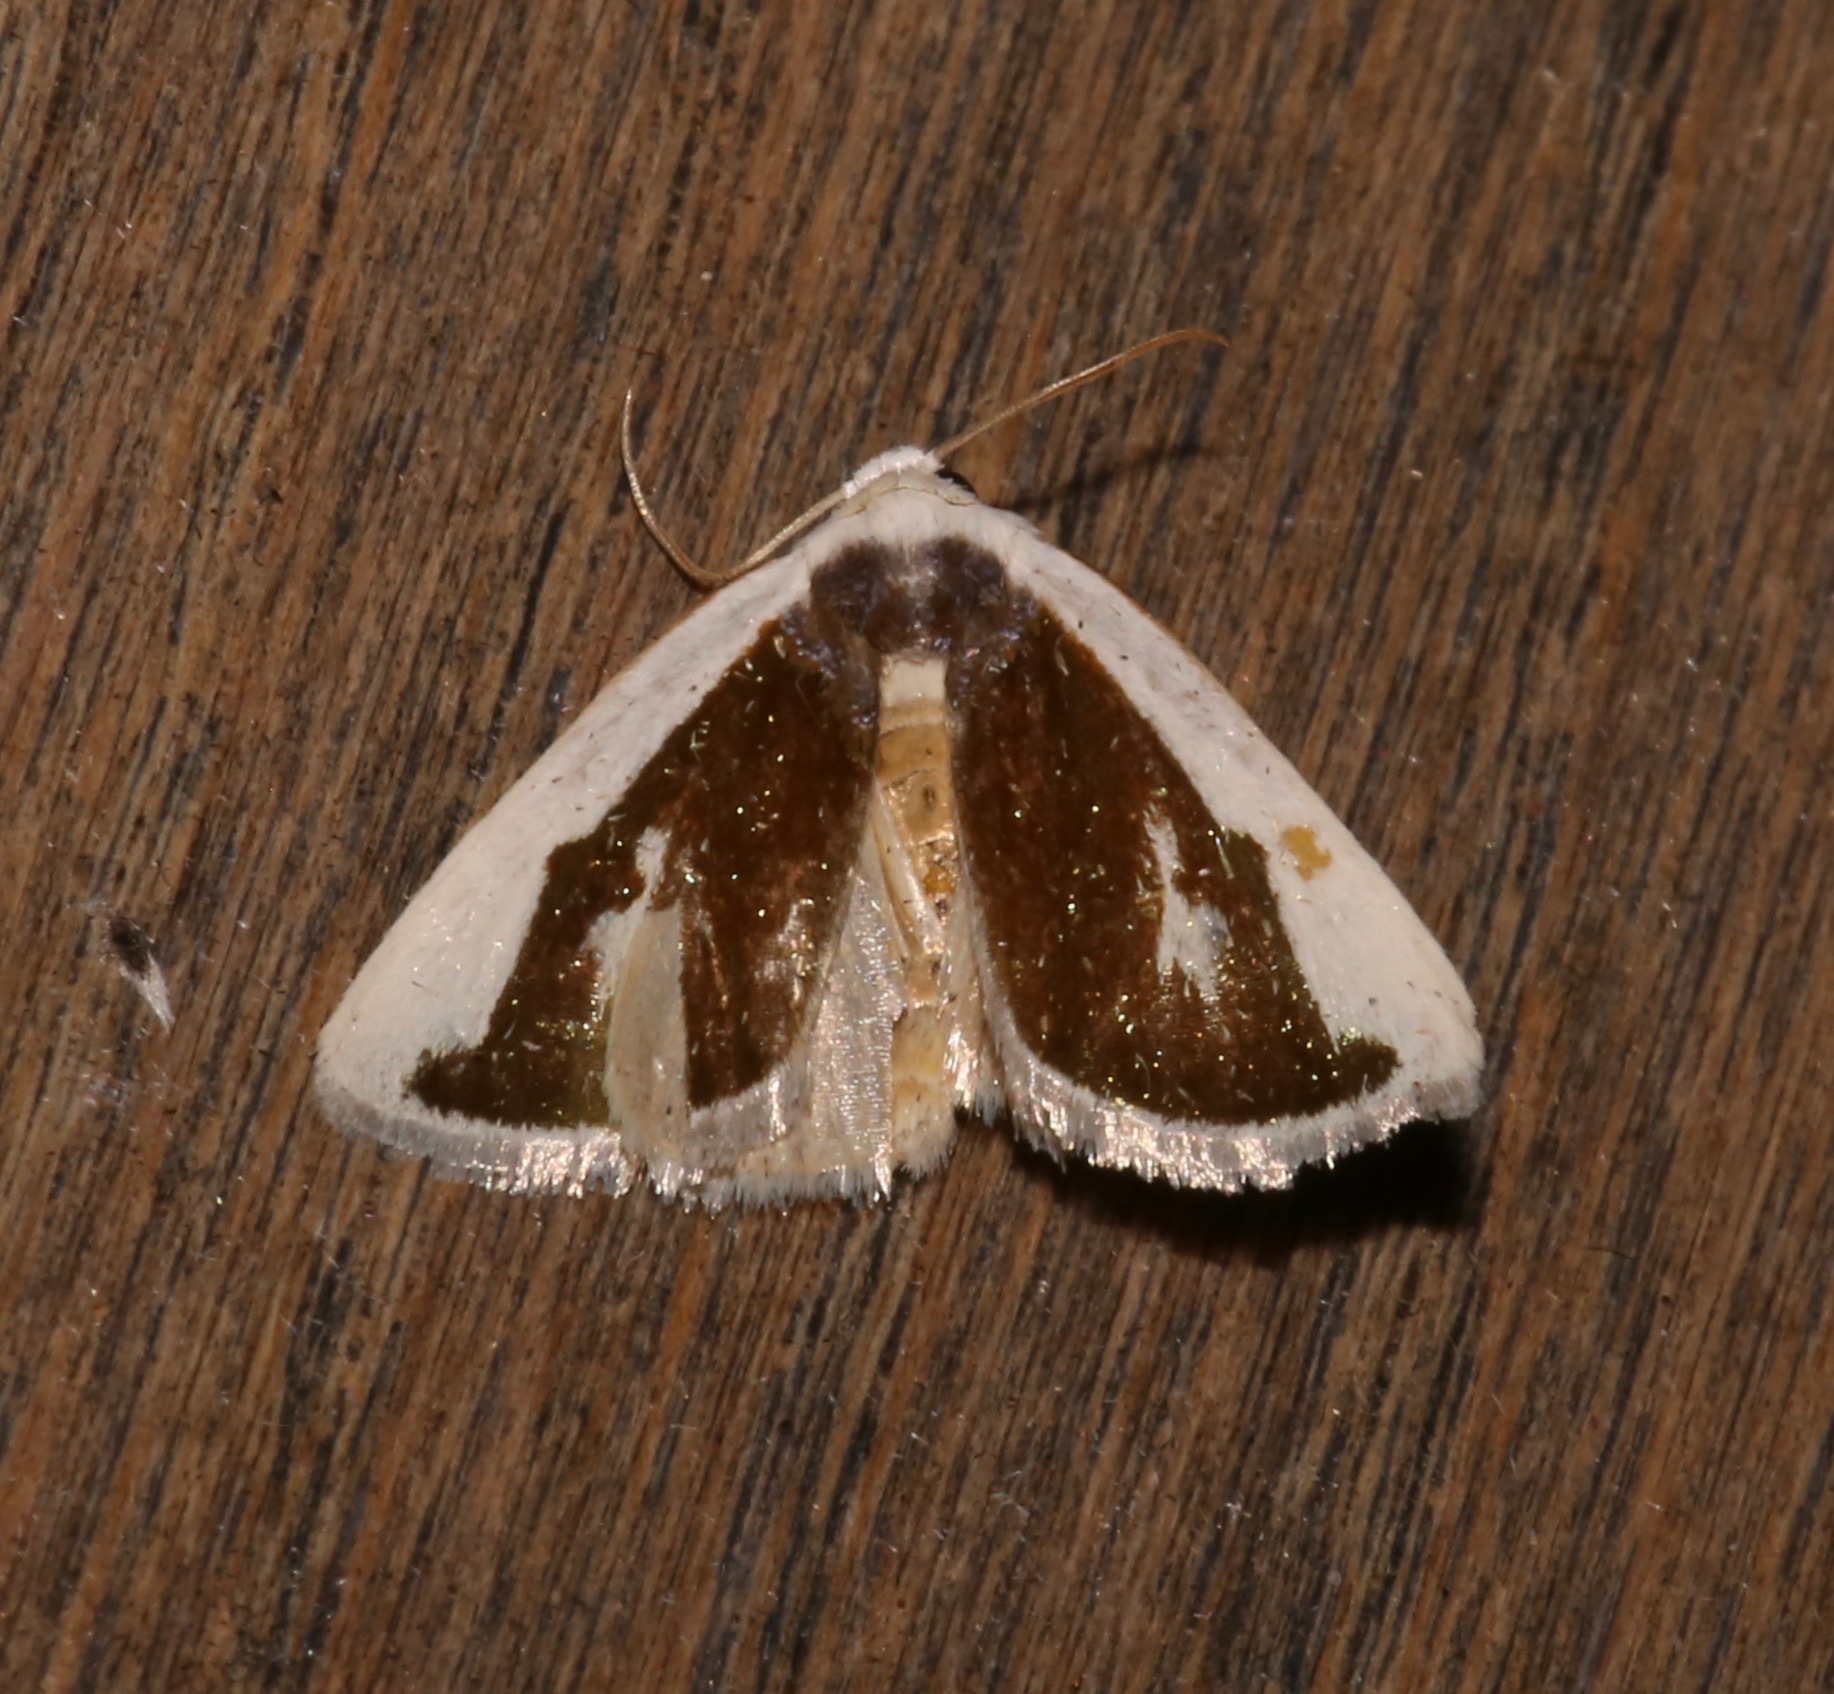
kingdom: Animalia
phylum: Arthropoda
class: Insecta
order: Lepidoptera
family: Noctuidae
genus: Neumoegenia
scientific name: Neumoegenia poetica
